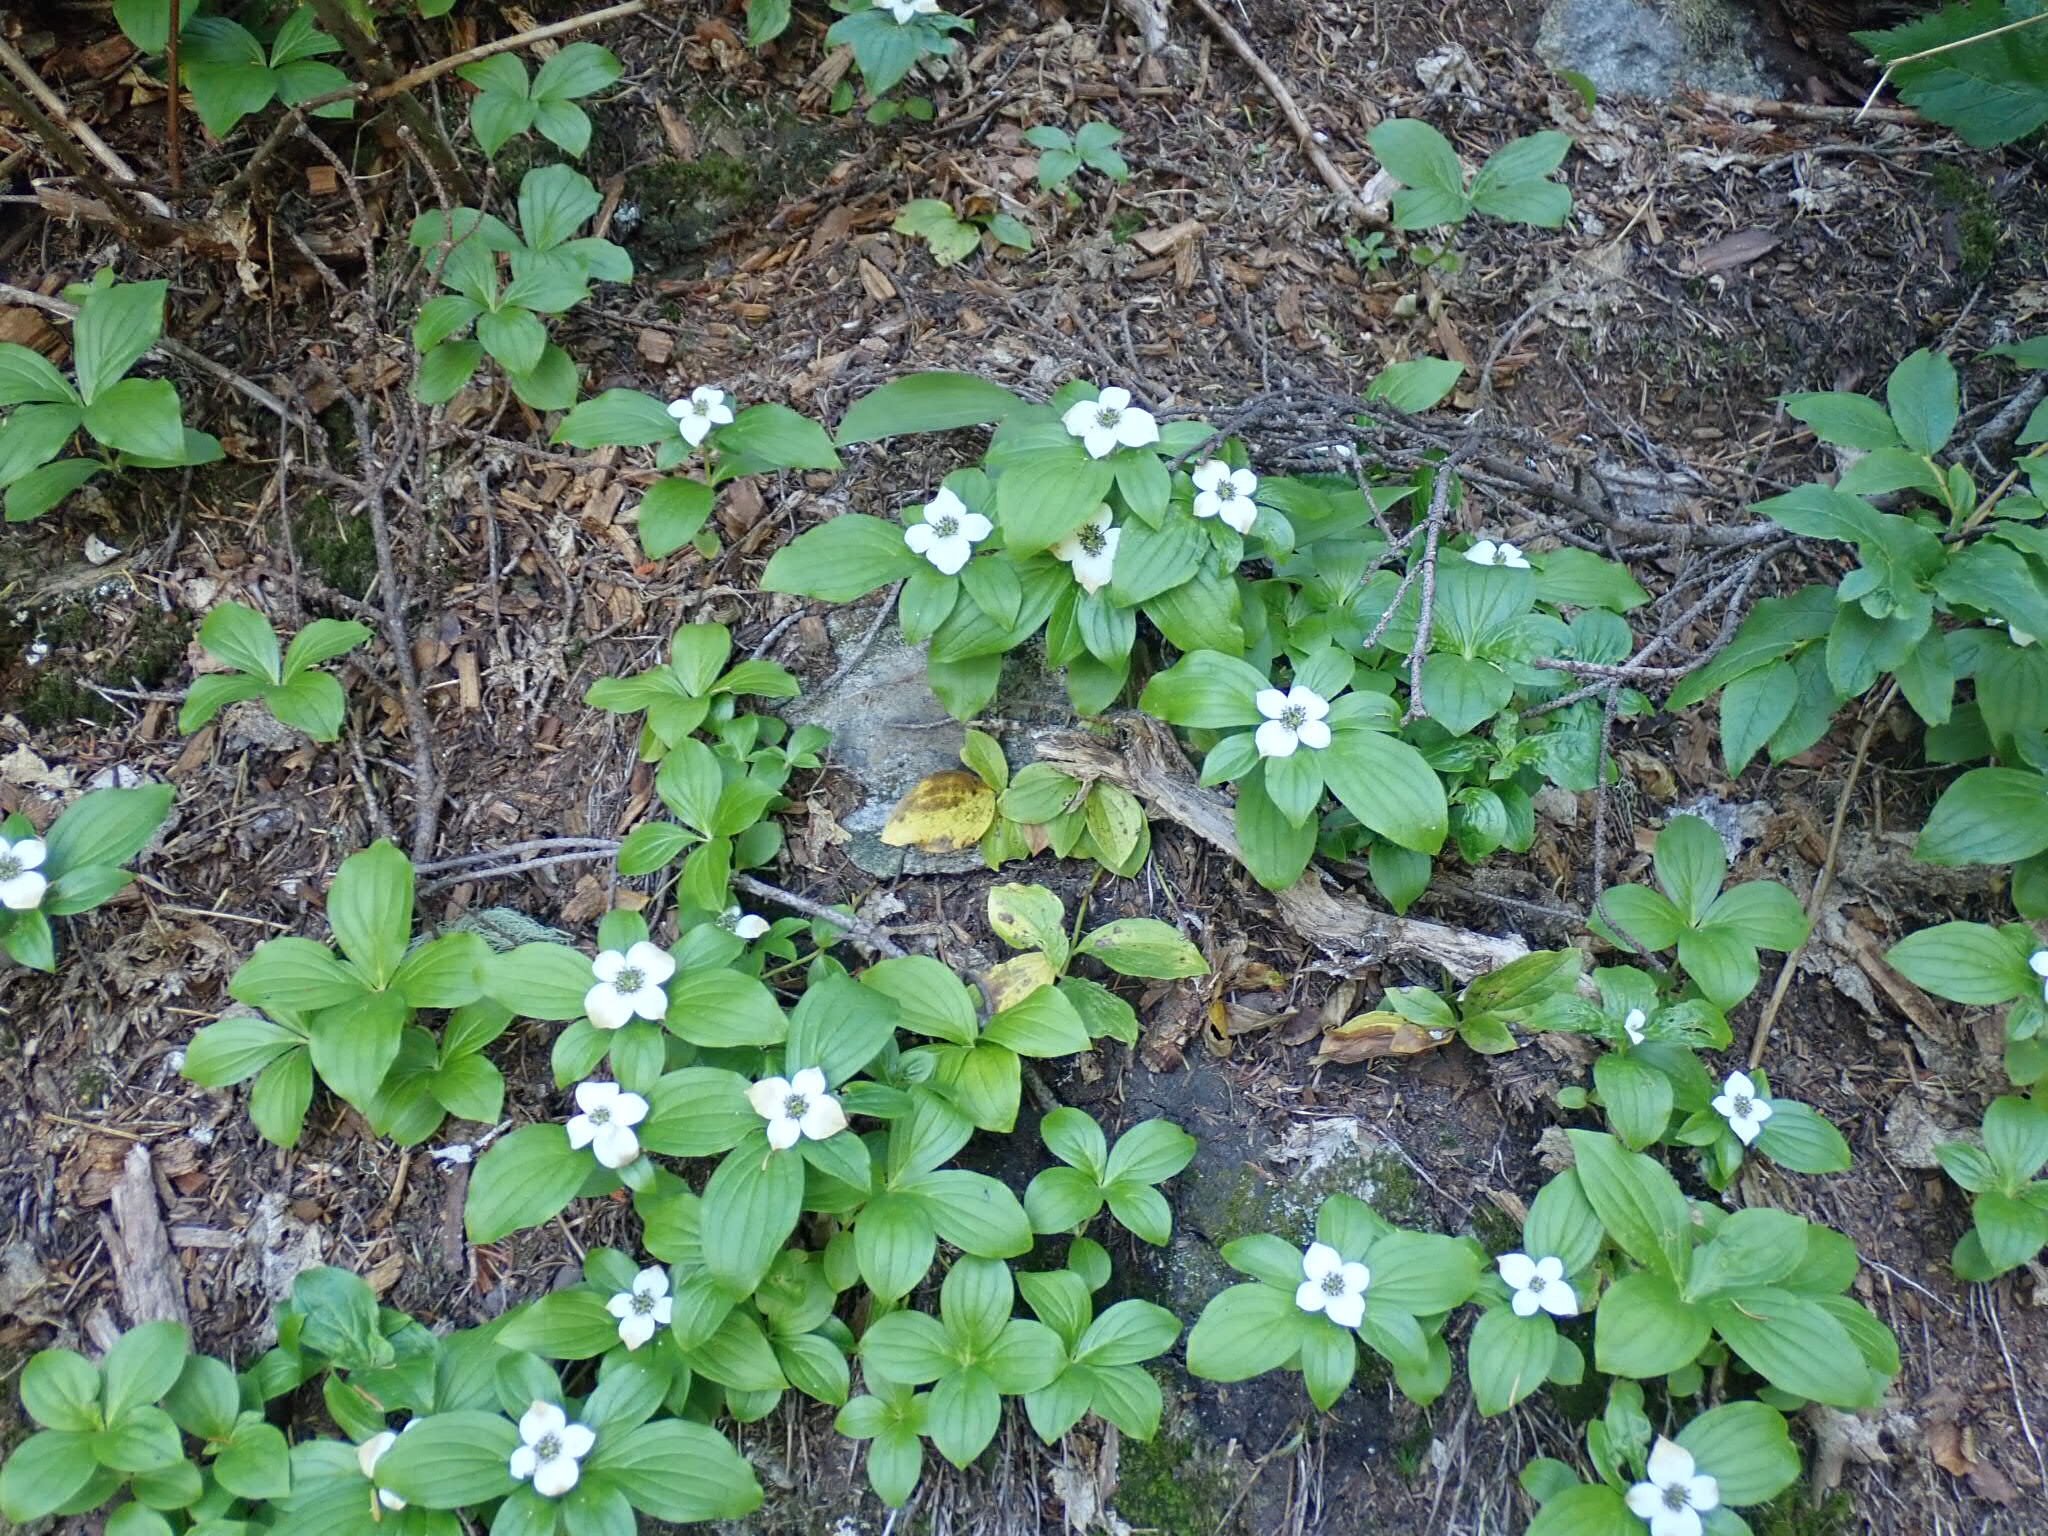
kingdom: Plantae
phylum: Tracheophyta
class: Magnoliopsida
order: Cornales
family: Cornaceae
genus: Cornus
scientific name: Cornus unalaschkensis
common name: Alaska bunchberry
